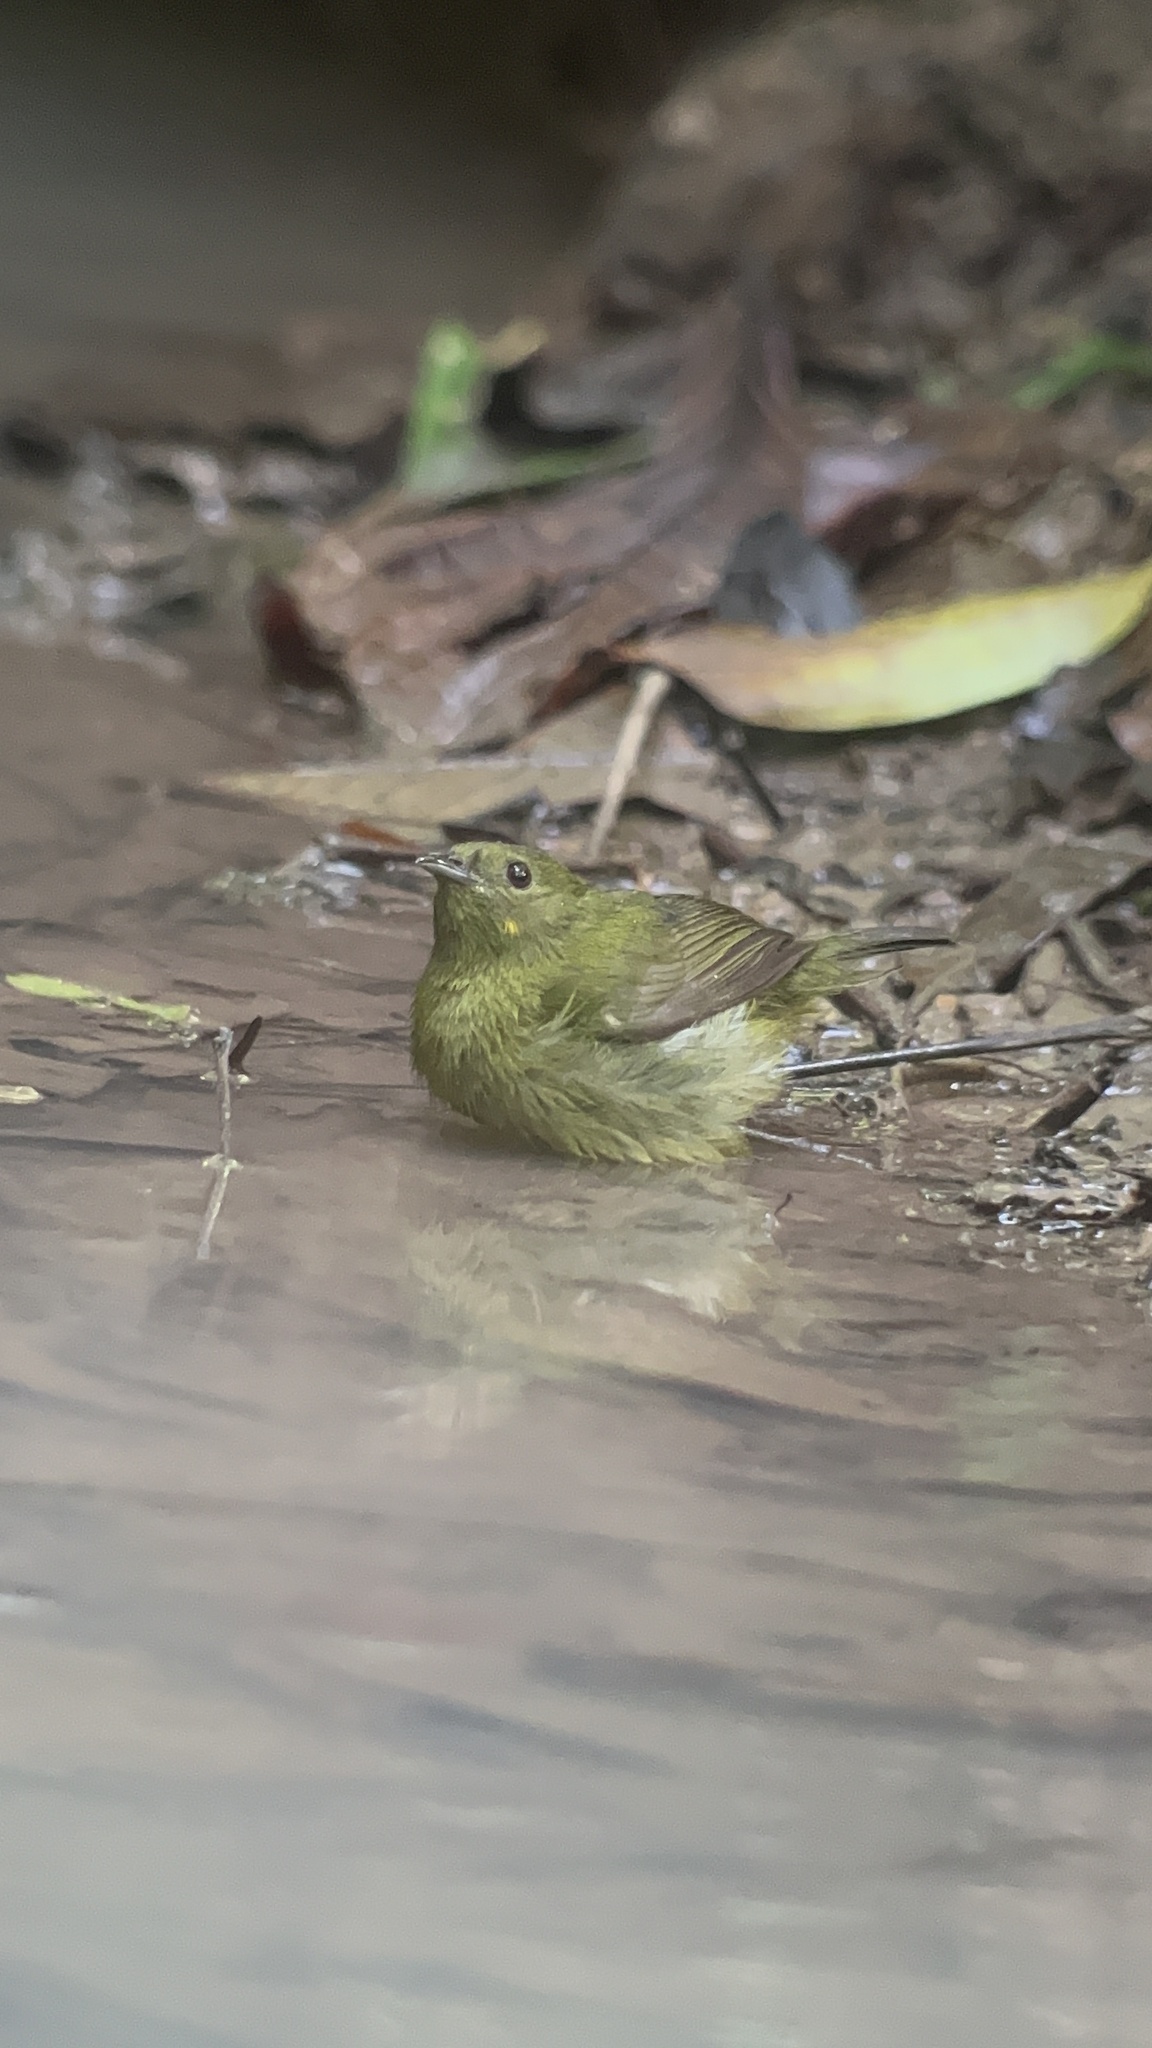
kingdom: Animalia
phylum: Chordata
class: Aves
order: Passeriformes
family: Pipridae
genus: Manacus
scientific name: Manacus vitellinus
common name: Golden-collared manakin
